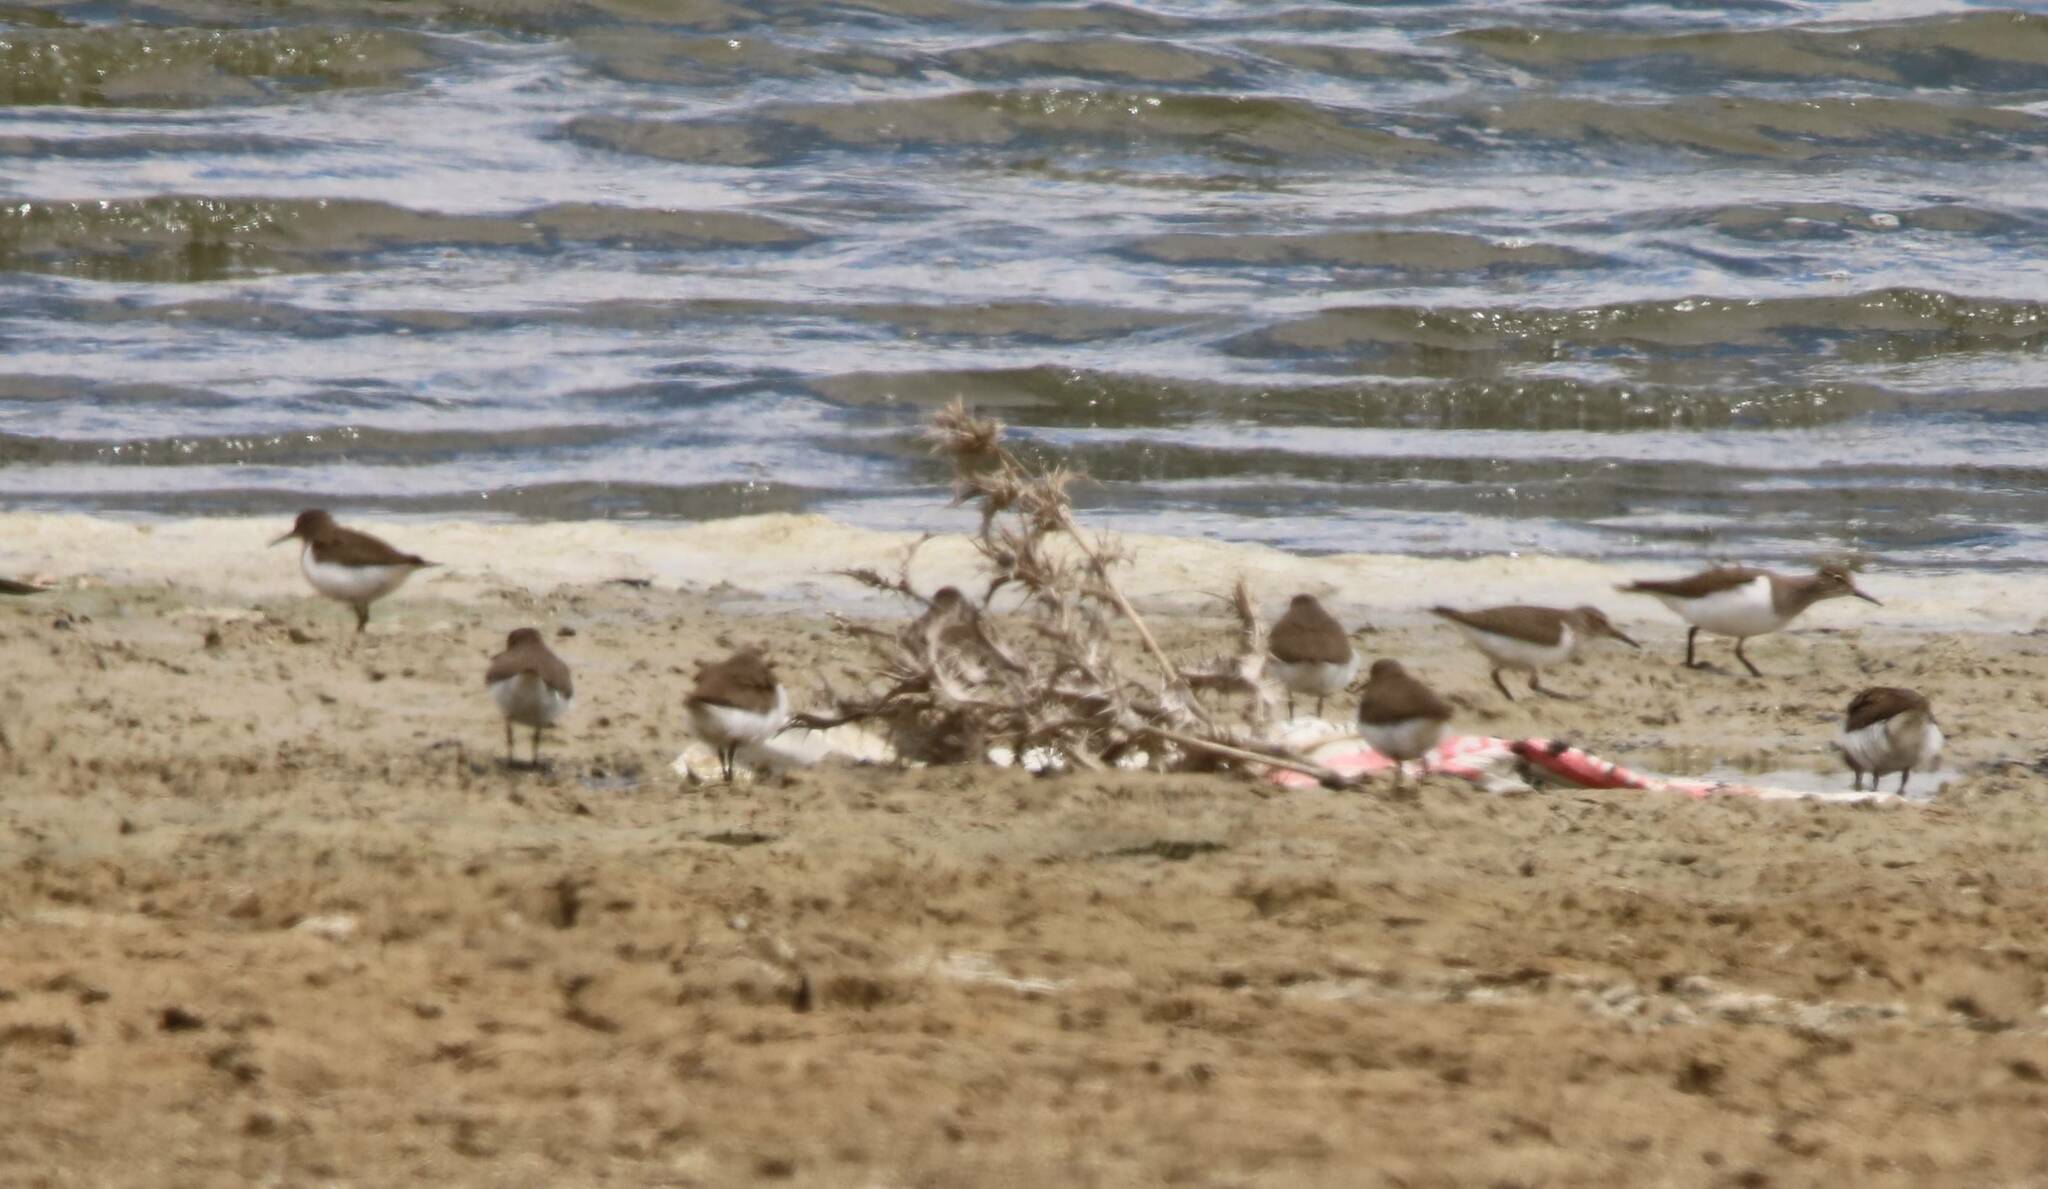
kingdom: Animalia
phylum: Chordata
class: Aves
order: Charadriiformes
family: Scolopacidae
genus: Actitis
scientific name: Actitis hypoleucos
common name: Common sandpiper
